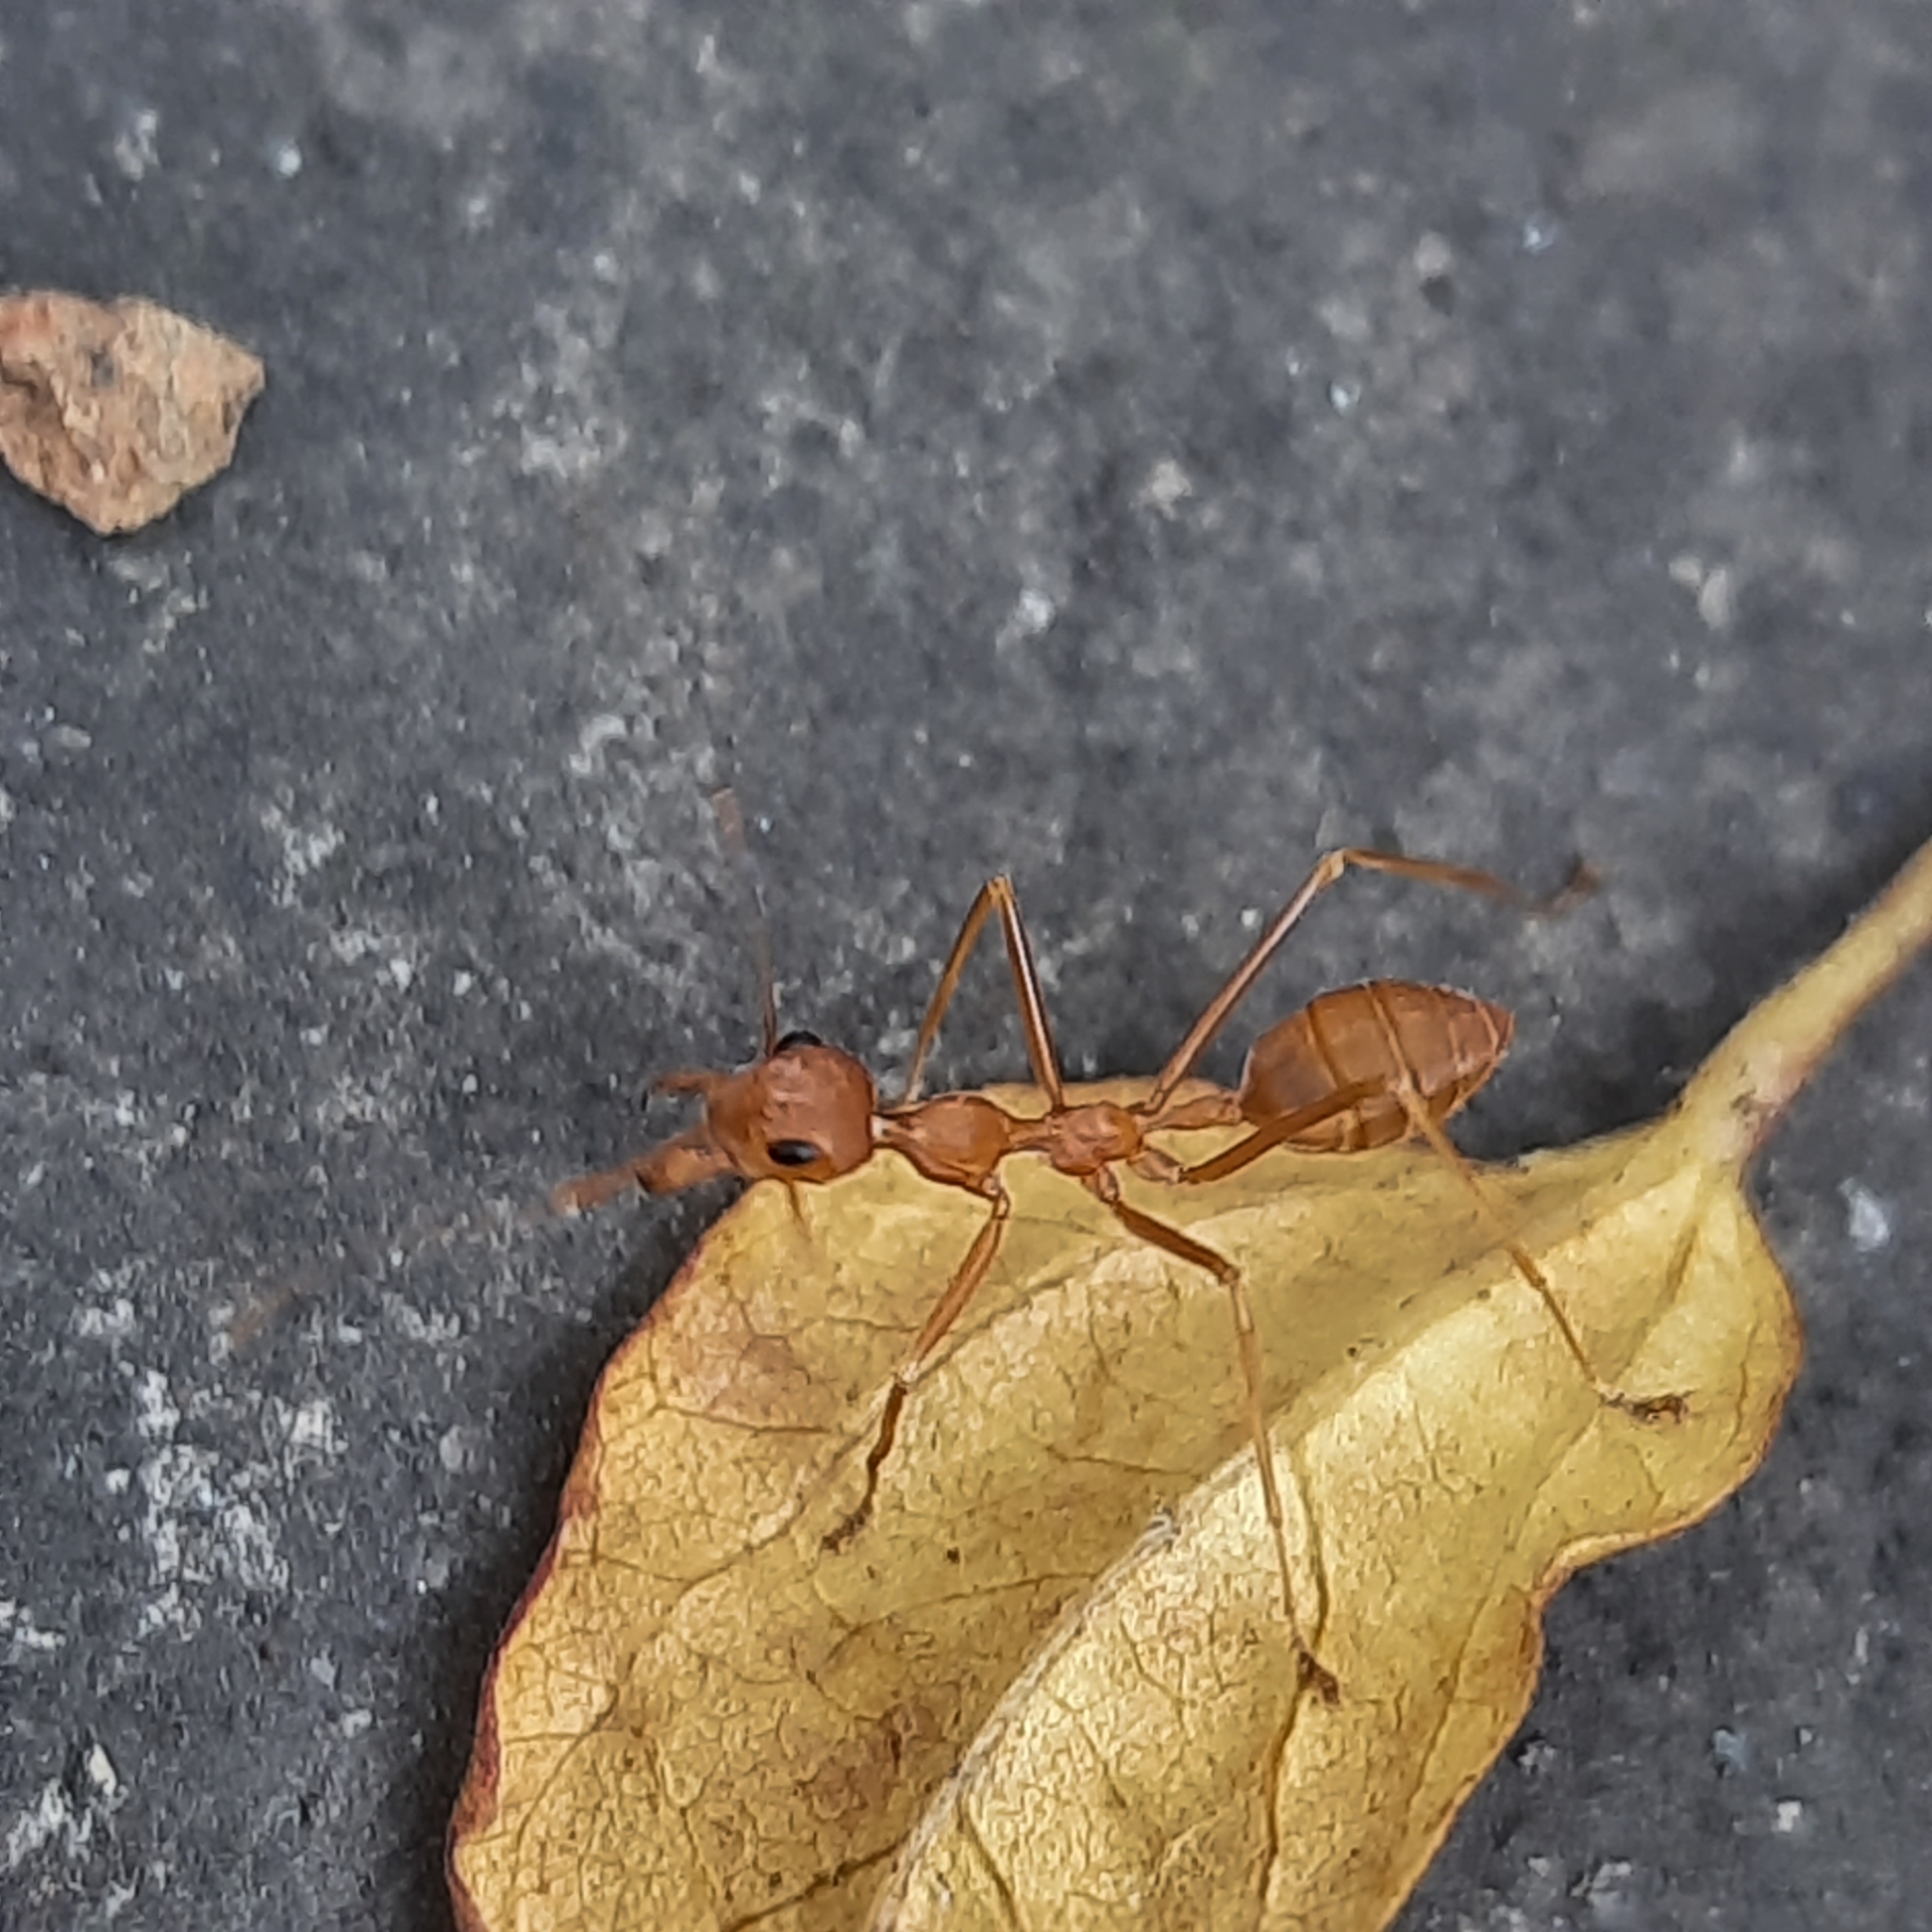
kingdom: Animalia
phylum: Arthropoda
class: Insecta
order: Hymenoptera
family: Formicidae
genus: Oecophylla
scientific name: Oecophylla smaragdina
